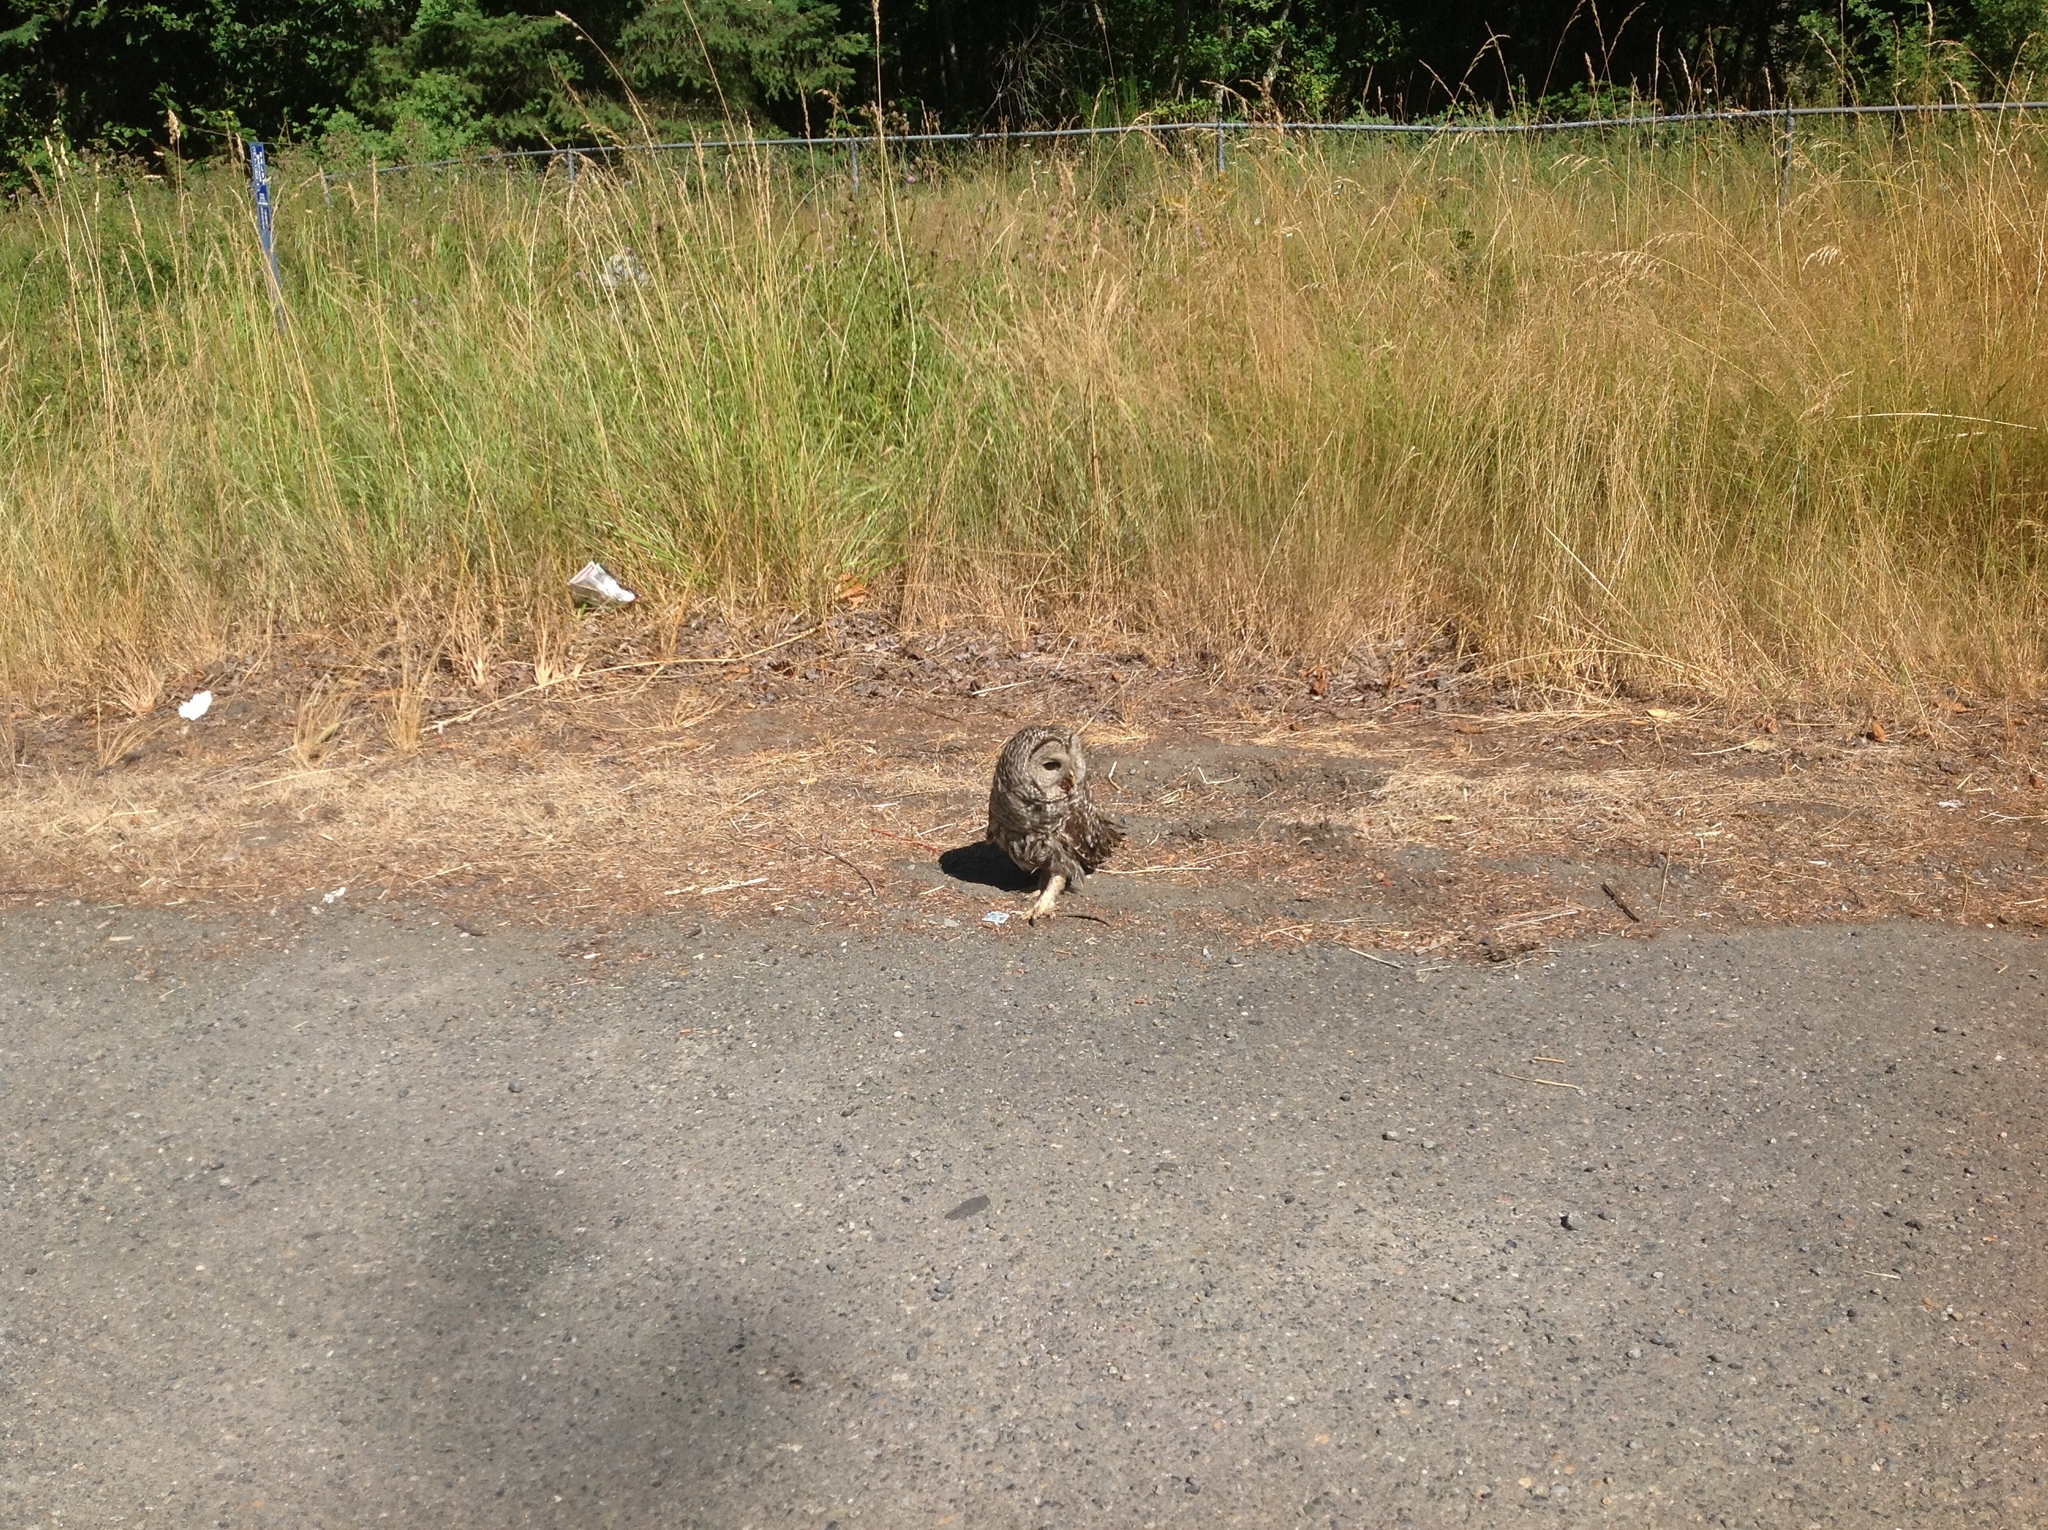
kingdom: Animalia
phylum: Chordata
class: Aves
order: Strigiformes
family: Strigidae
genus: Strix
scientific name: Strix varia
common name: Barred owl
